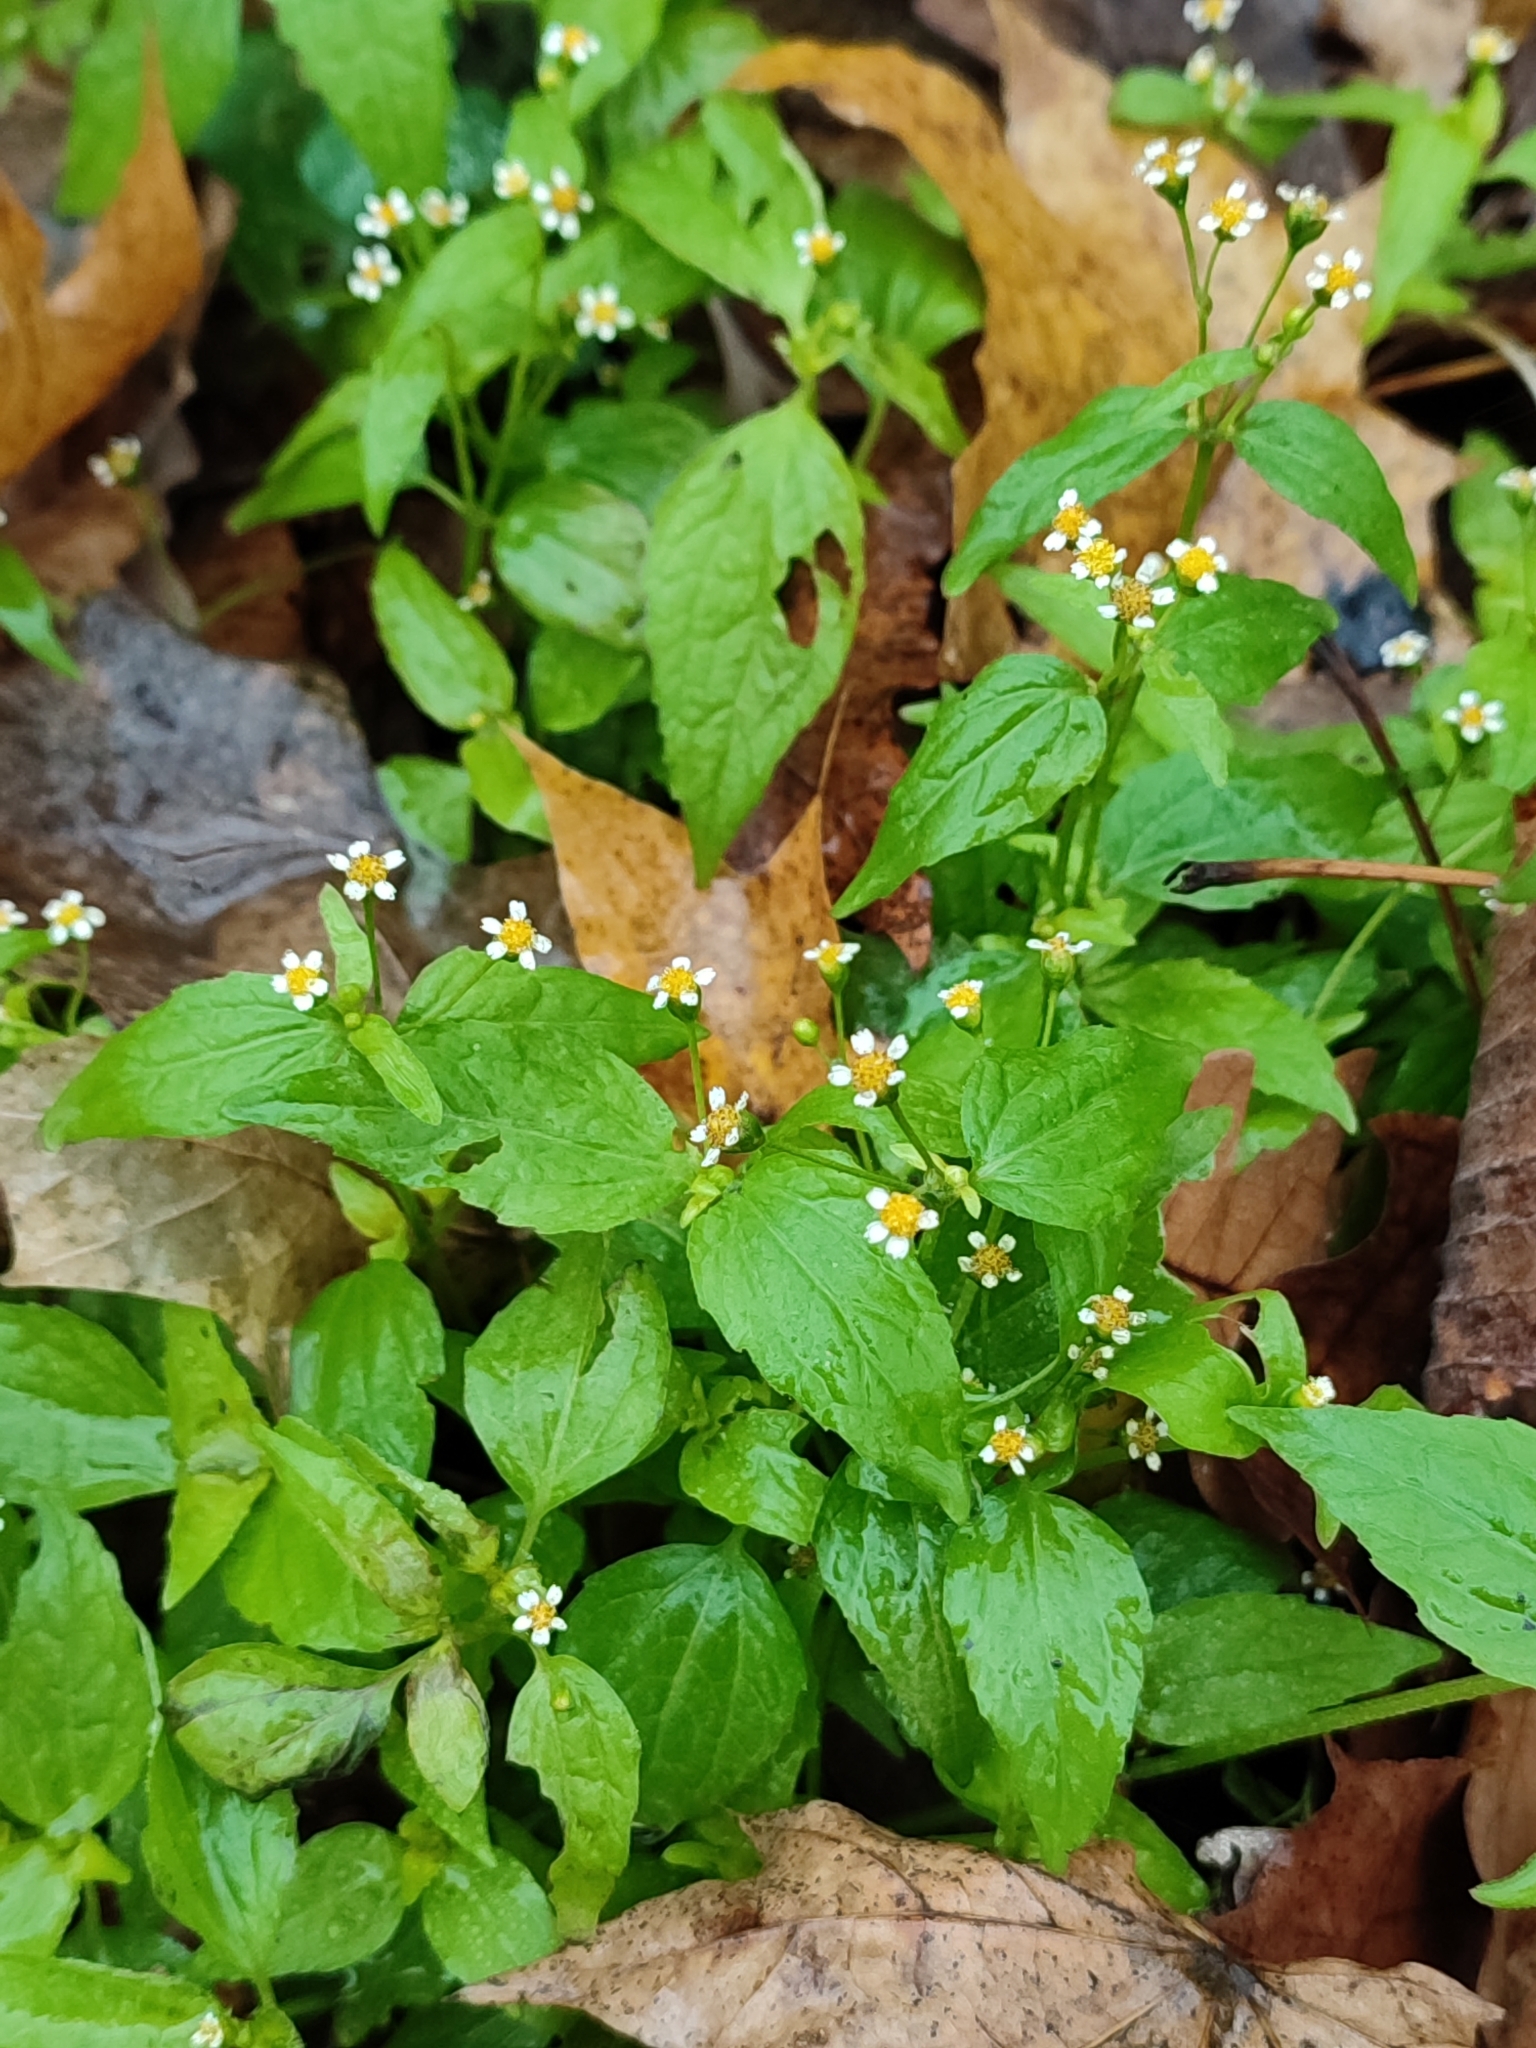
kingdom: Plantae
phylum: Tracheophyta
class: Magnoliopsida
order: Asterales
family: Asteraceae
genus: Galinsoga
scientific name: Galinsoga parviflora
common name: Gallant soldier
